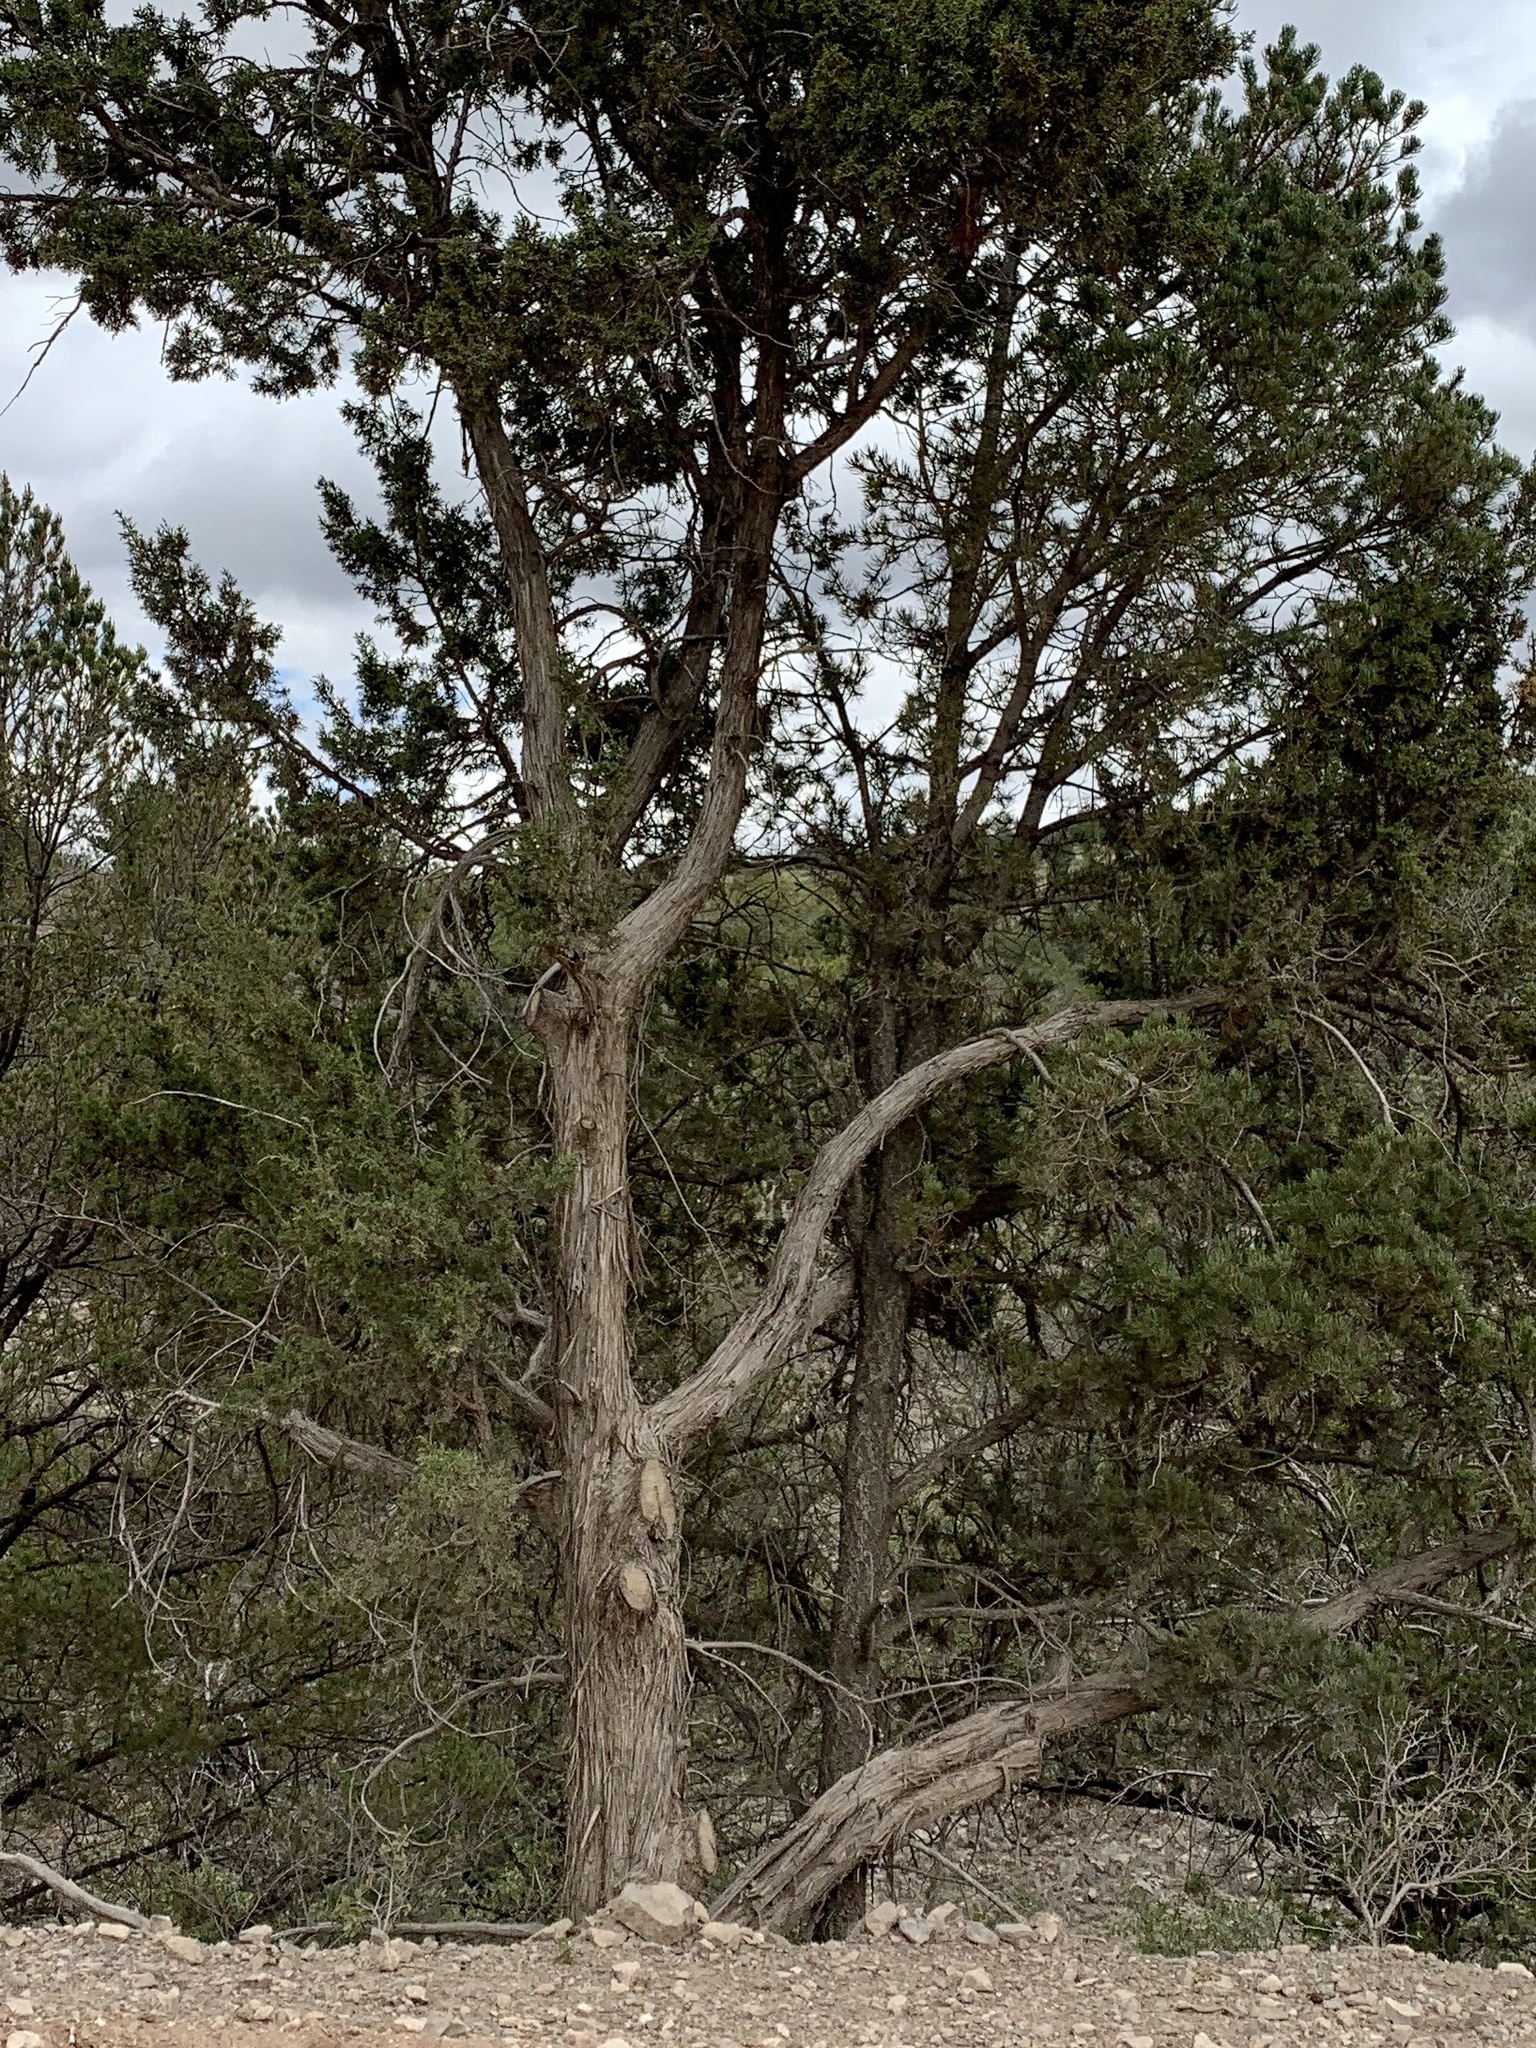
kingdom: Plantae
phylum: Tracheophyta
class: Pinopsida
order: Pinales
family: Cupressaceae
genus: Juniperus
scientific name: Juniperus monosperma
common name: One-seed juniper
